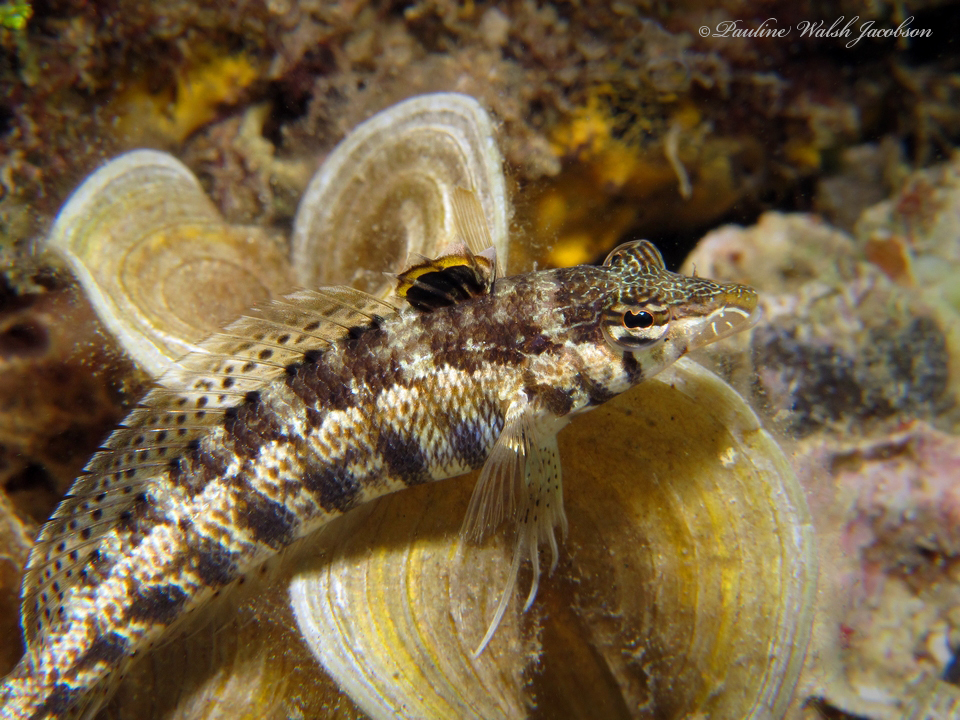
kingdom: Animalia
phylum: Chordata
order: Perciformes
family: Pinguipedidae
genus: Parapercis
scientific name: Parapercis cylindrica
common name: Cylindrical sandperch
